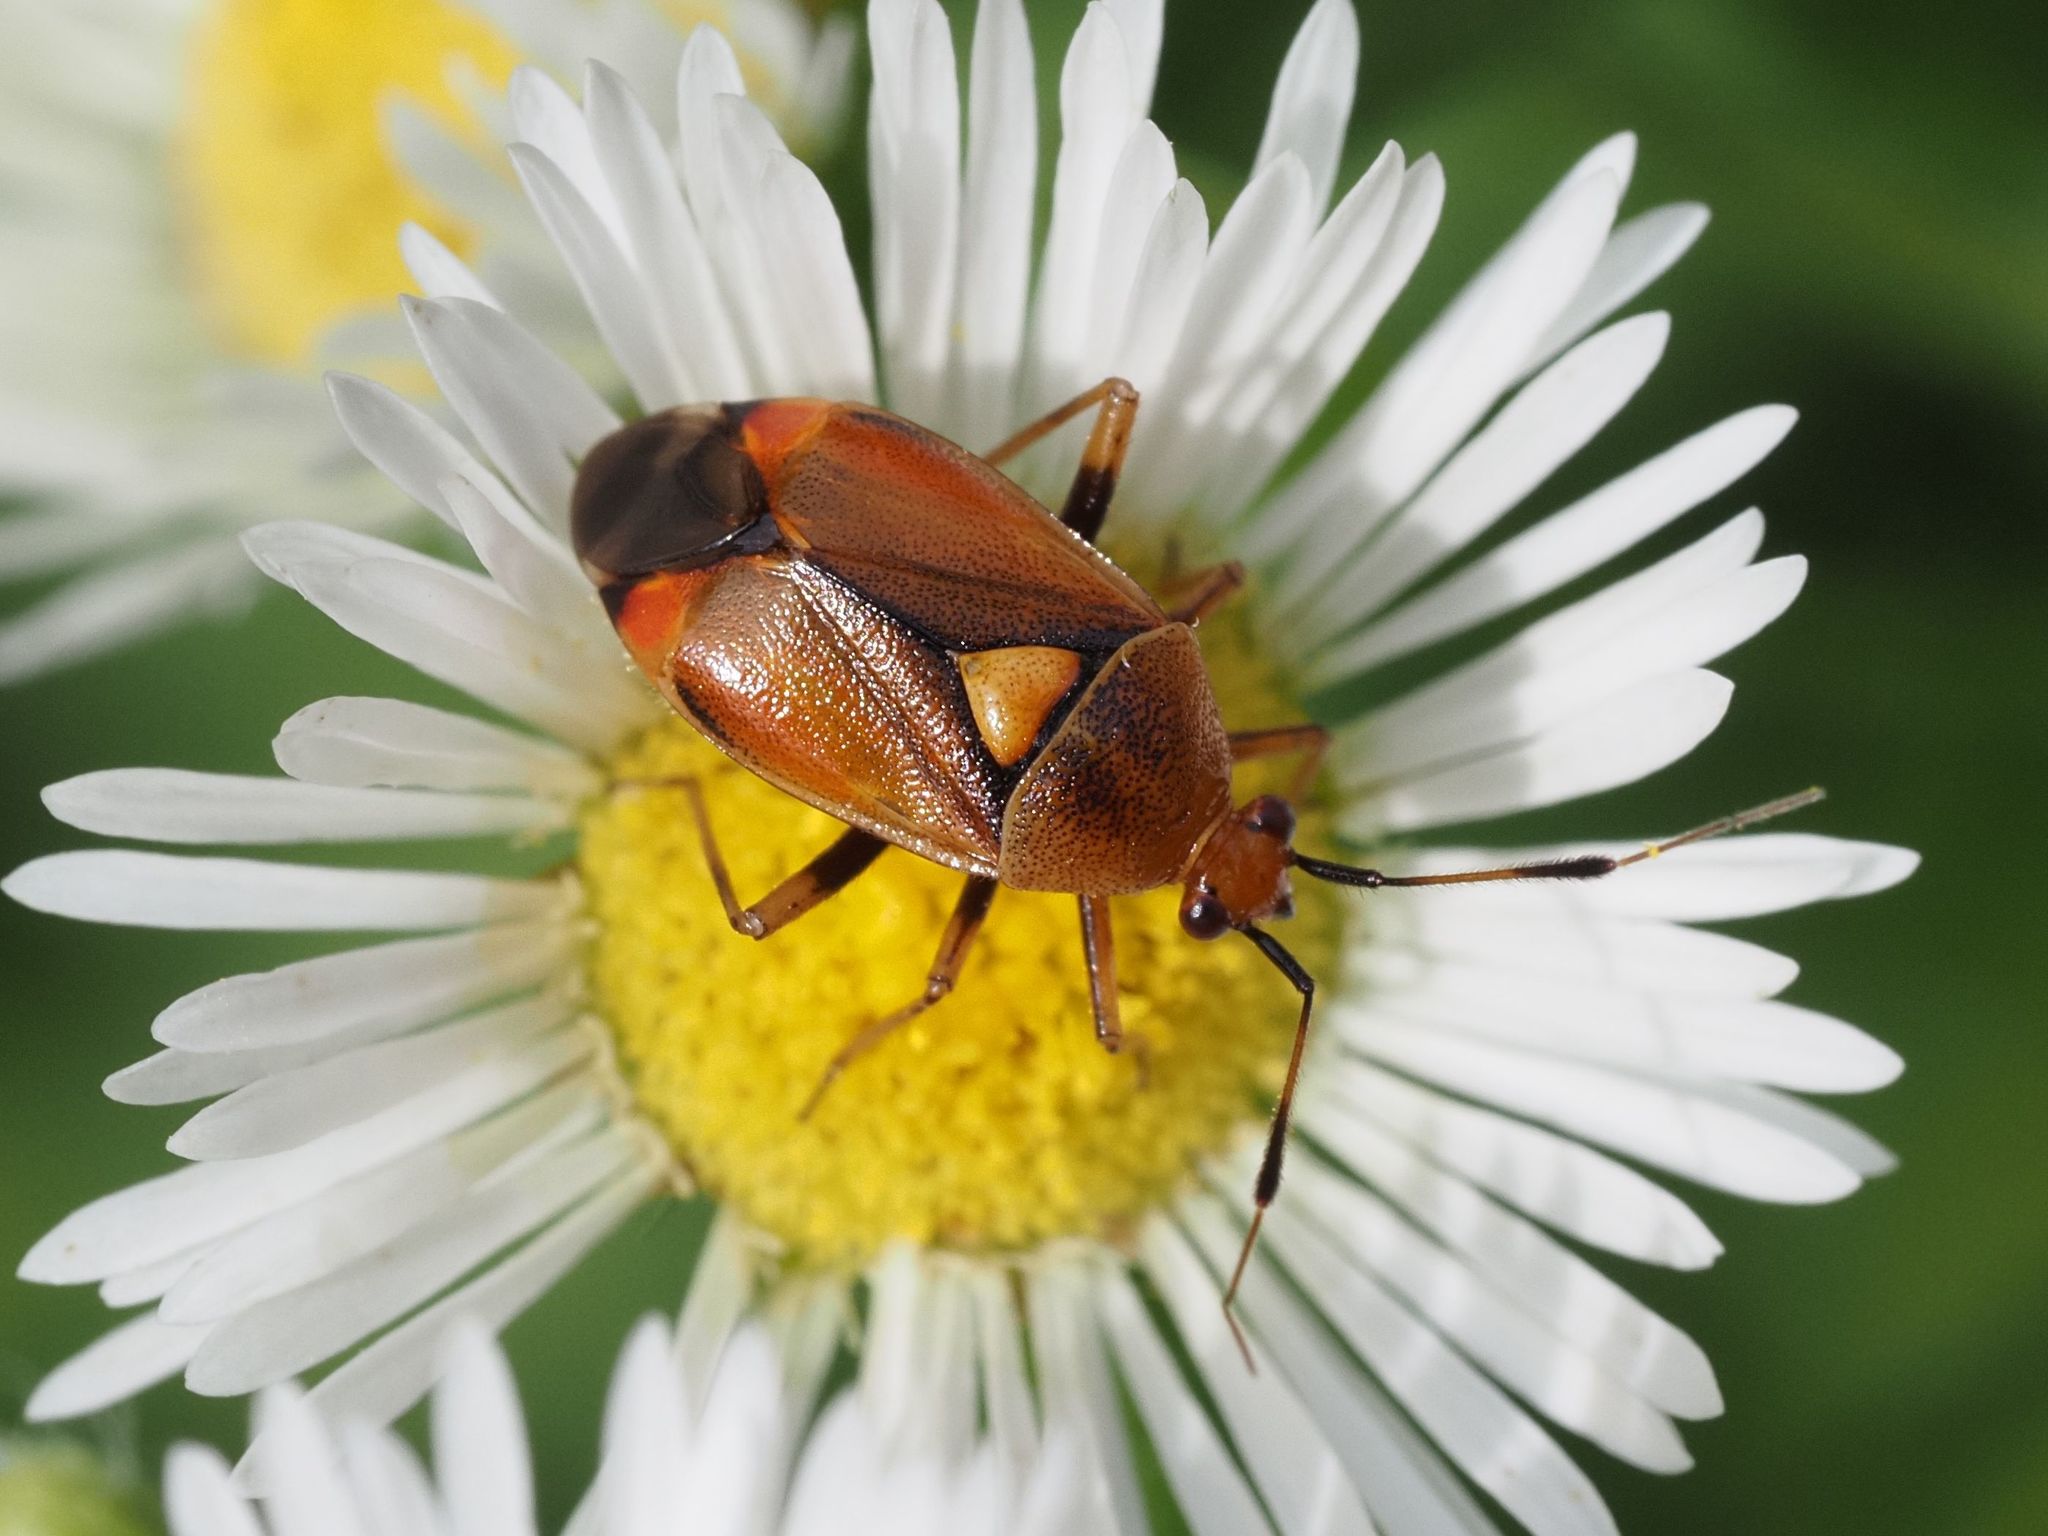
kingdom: Animalia
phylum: Arthropoda
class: Insecta
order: Hemiptera
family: Miridae
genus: Deraeocoris
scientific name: Deraeocoris ruber
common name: Plant bug
